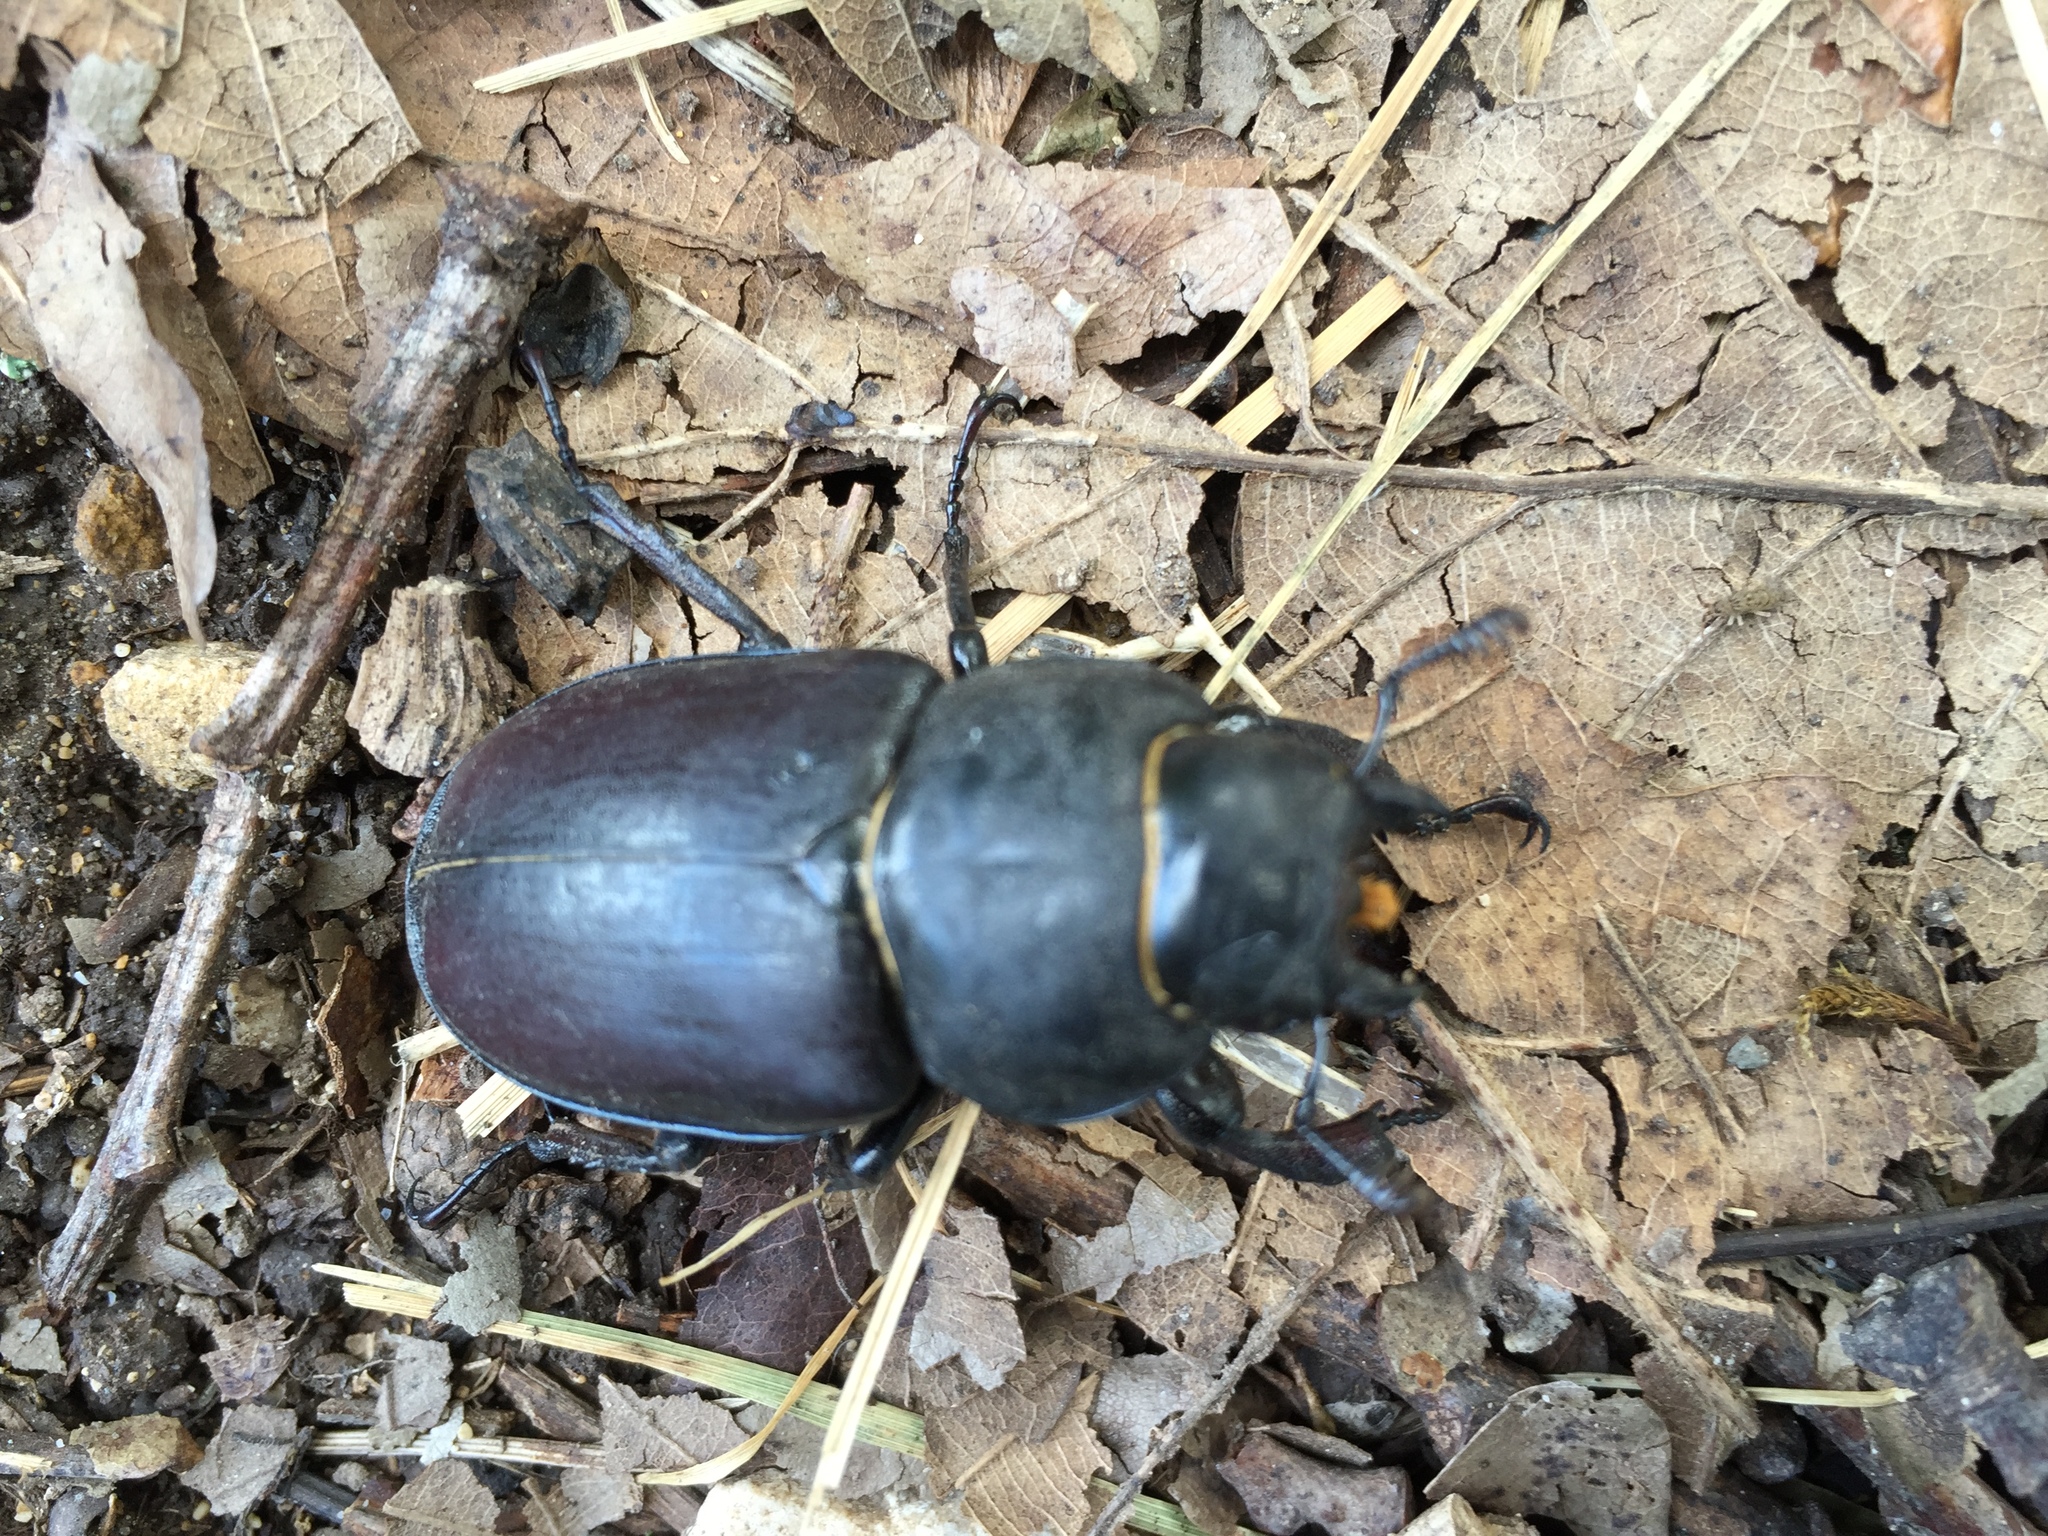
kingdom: Animalia
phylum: Arthropoda
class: Insecta
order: Coleoptera
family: Lucanidae
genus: Lucanus
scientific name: Lucanus cervus
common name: Stag beetle
